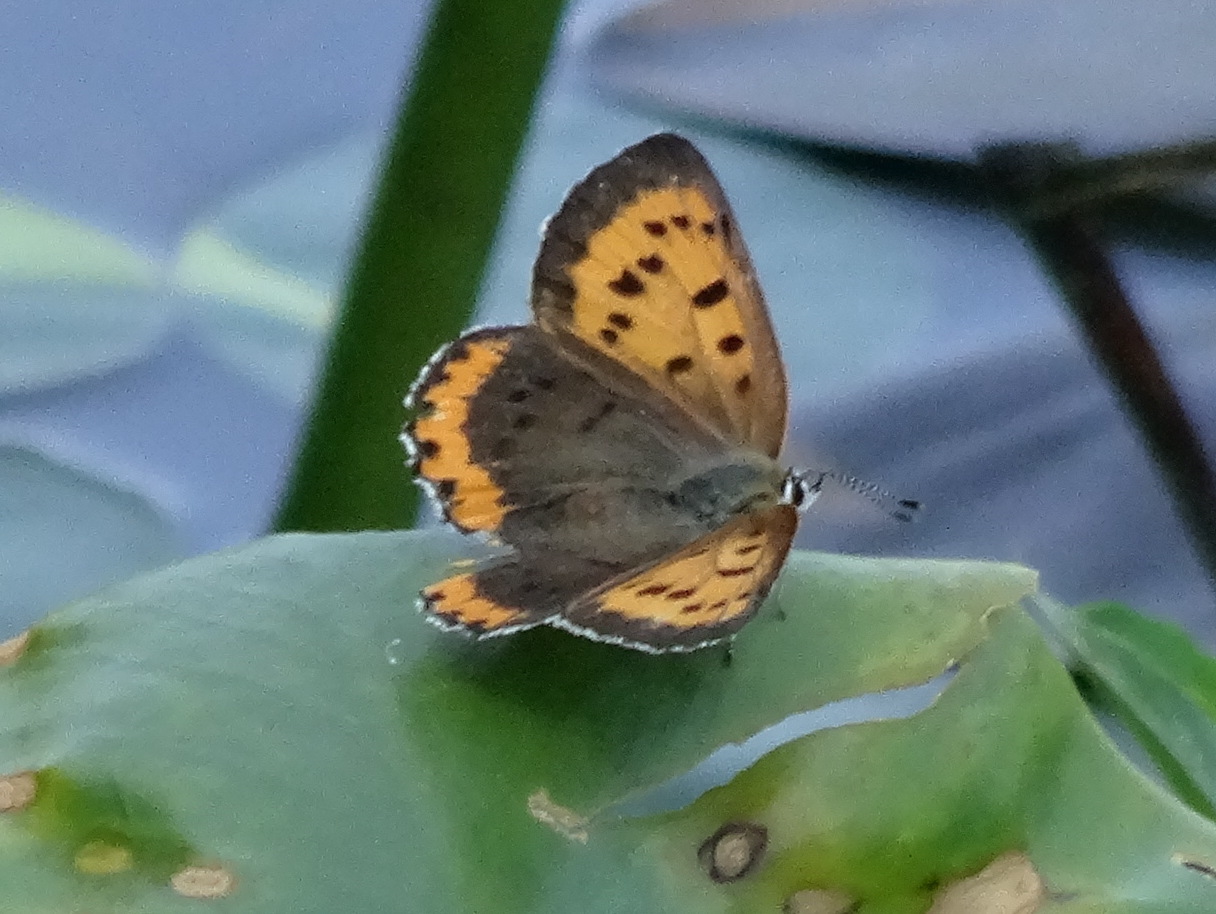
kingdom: Animalia
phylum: Arthropoda
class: Insecta
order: Lepidoptera
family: Lycaenidae
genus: Tharsalea
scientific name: Tharsalea hyllus
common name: Bronze copper
